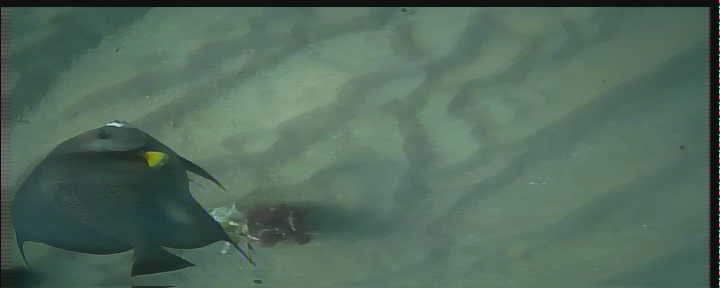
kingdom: Animalia
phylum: Chordata
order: Perciformes
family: Pomacanthidae
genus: Pomacanthus
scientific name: Pomacanthus arcuatus
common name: Gray angelfish
